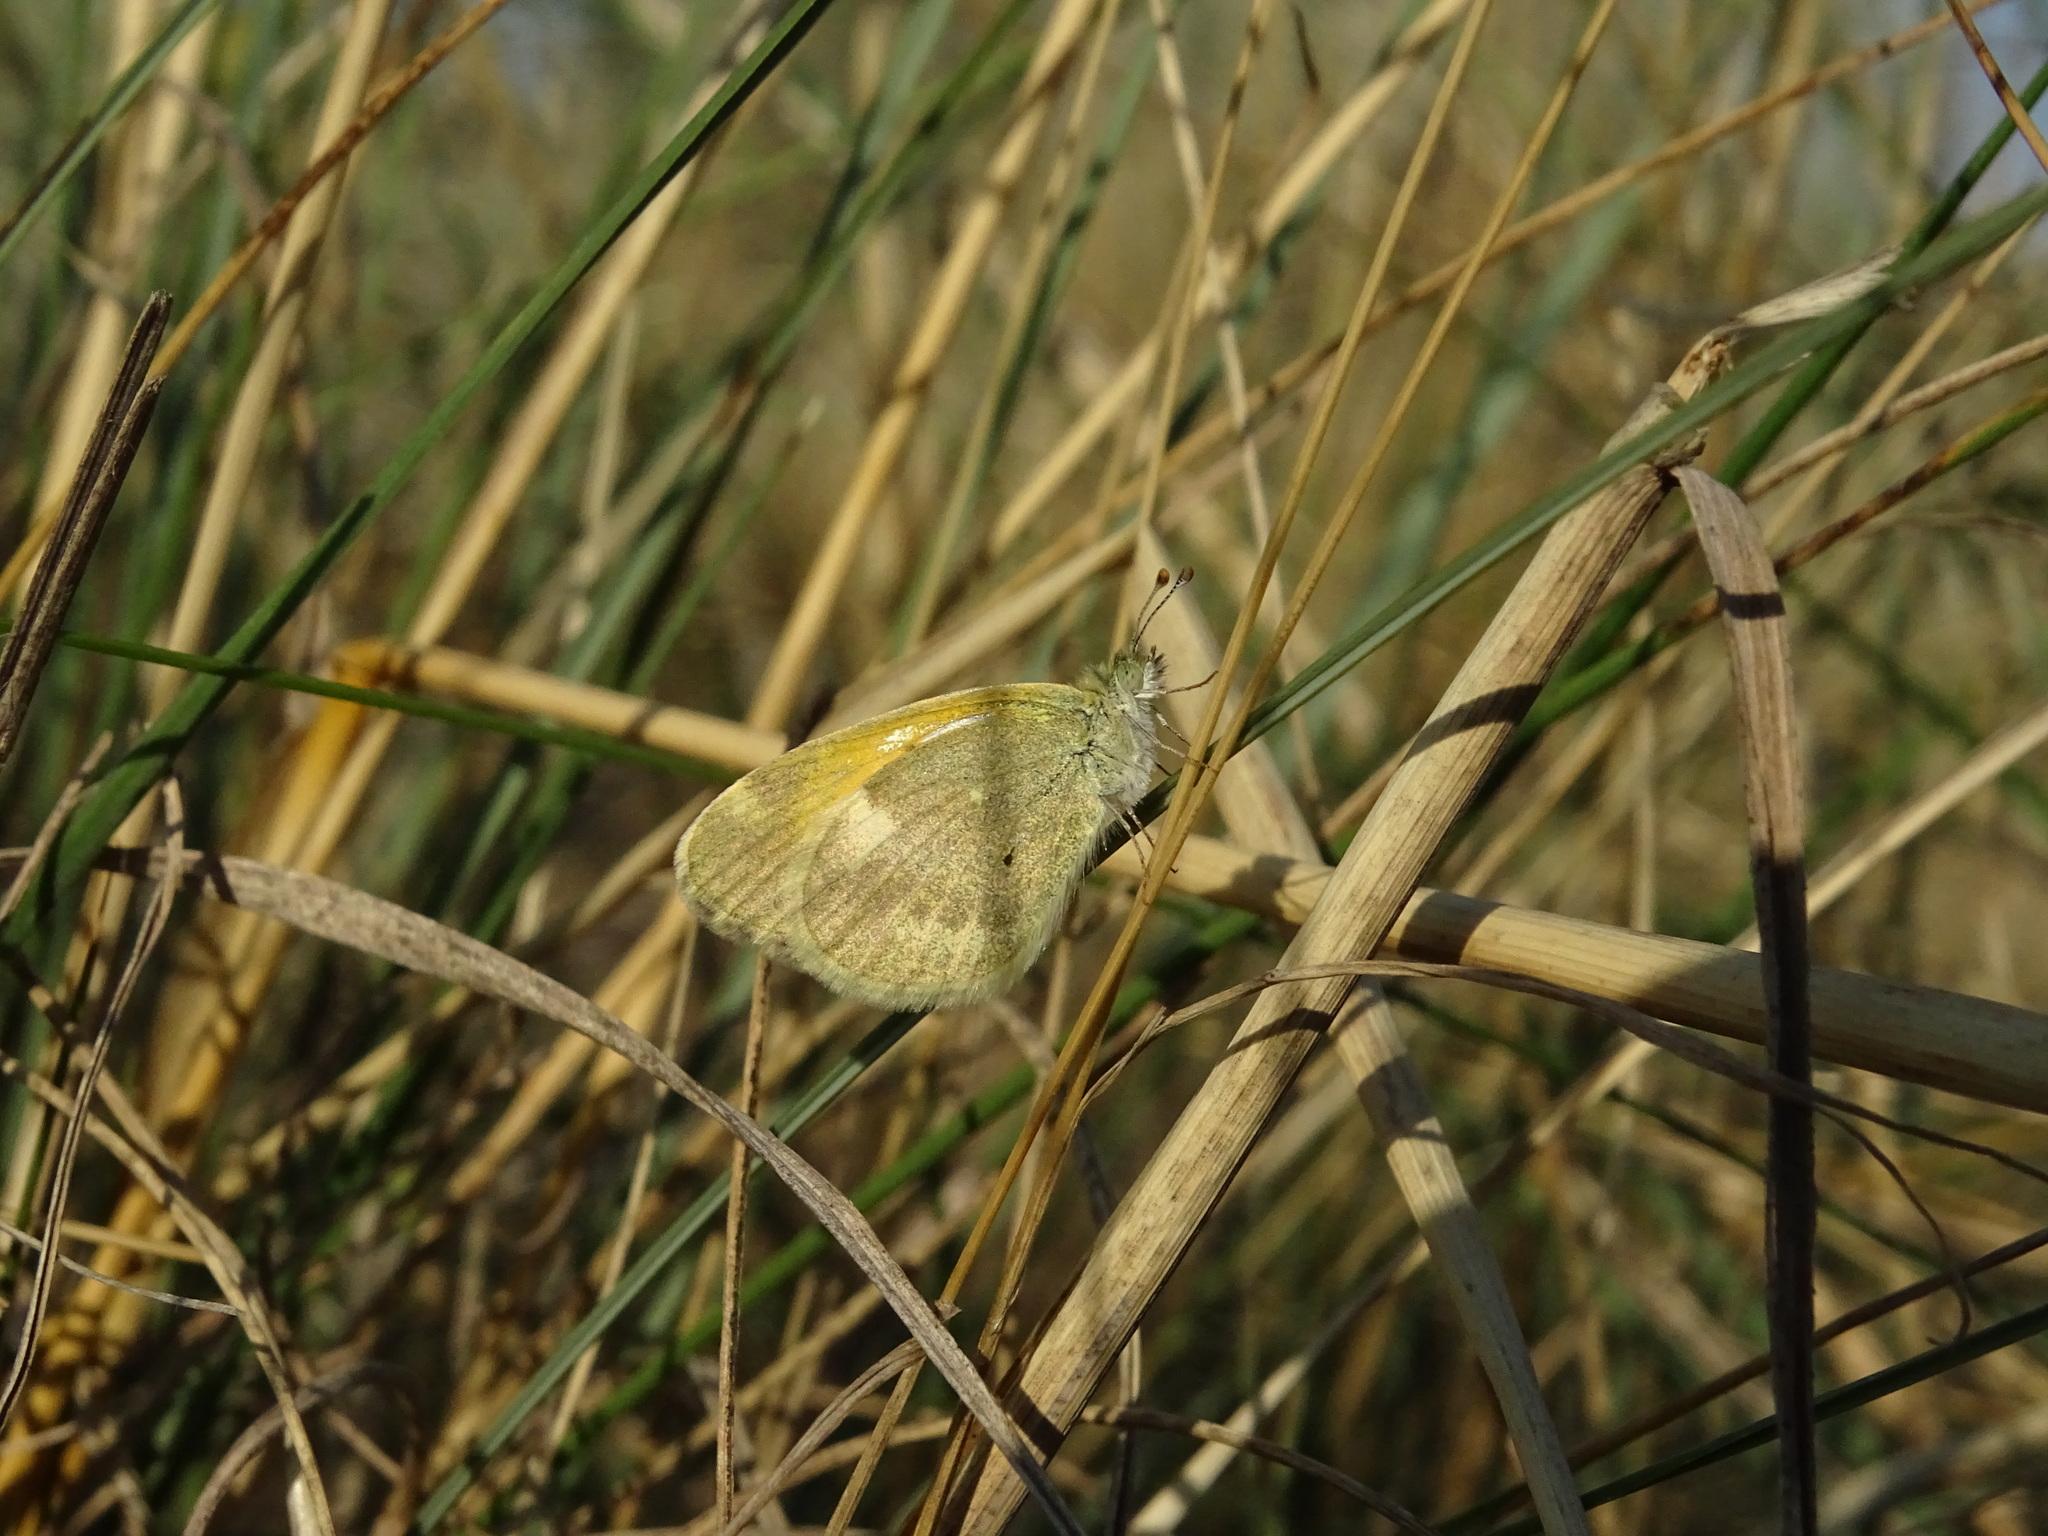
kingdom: Animalia
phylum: Arthropoda
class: Insecta
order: Lepidoptera
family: Pieridae
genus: Nathalis
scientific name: Nathalis iole
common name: Dainty sulphur
